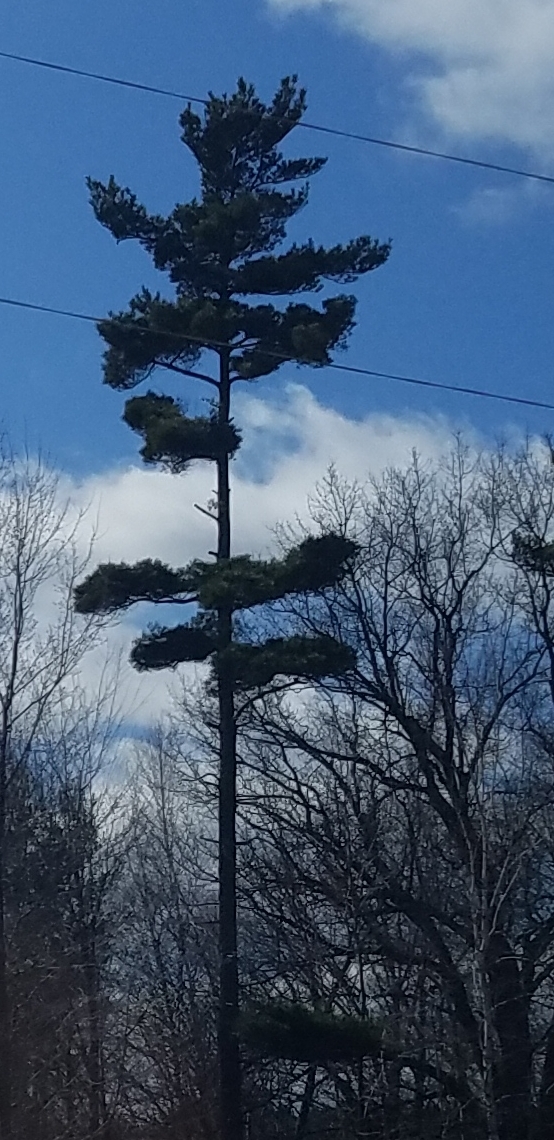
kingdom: Plantae
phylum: Tracheophyta
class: Pinopsida
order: Pinales
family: Pinaceae
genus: Pinus
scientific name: Pinus strobus
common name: Weymouth pine
